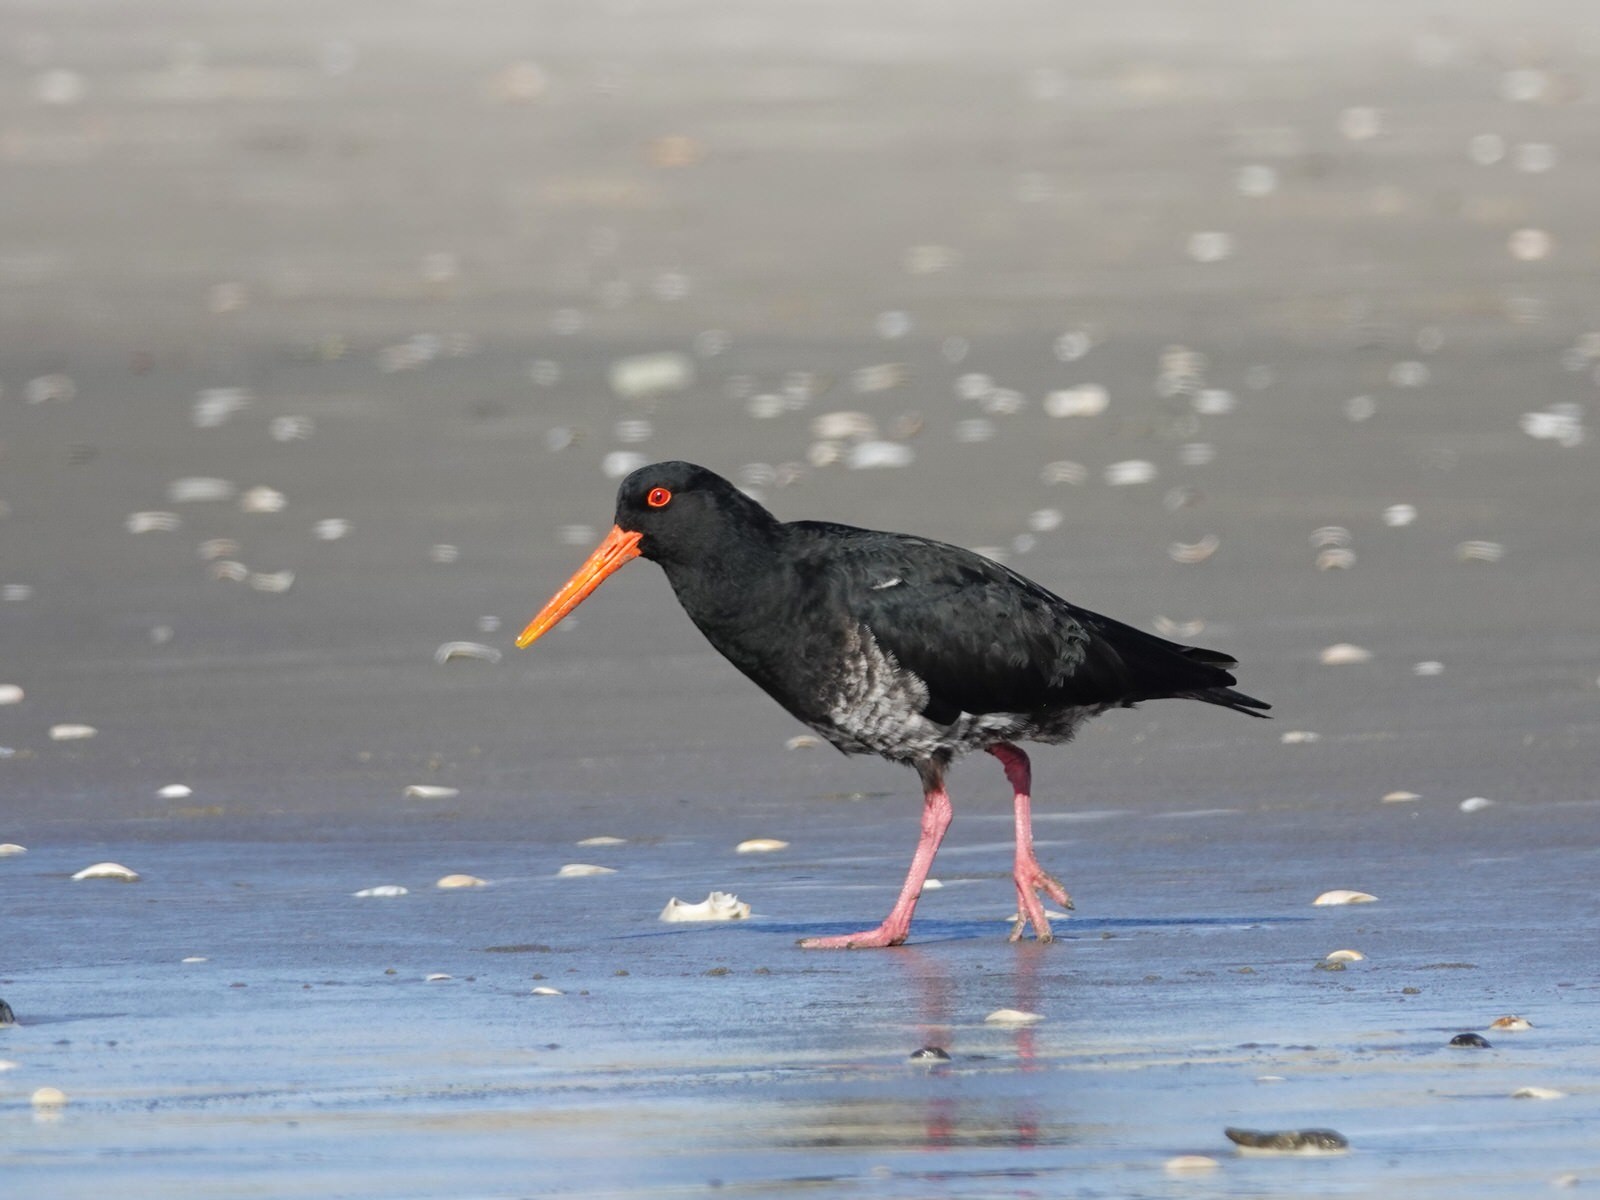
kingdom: Animalia
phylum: Chordata
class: Aves
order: Charadriiformes
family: Haematopodidae
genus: Haematopus
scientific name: Haematopus unicolor
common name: Variable oystercatcher
